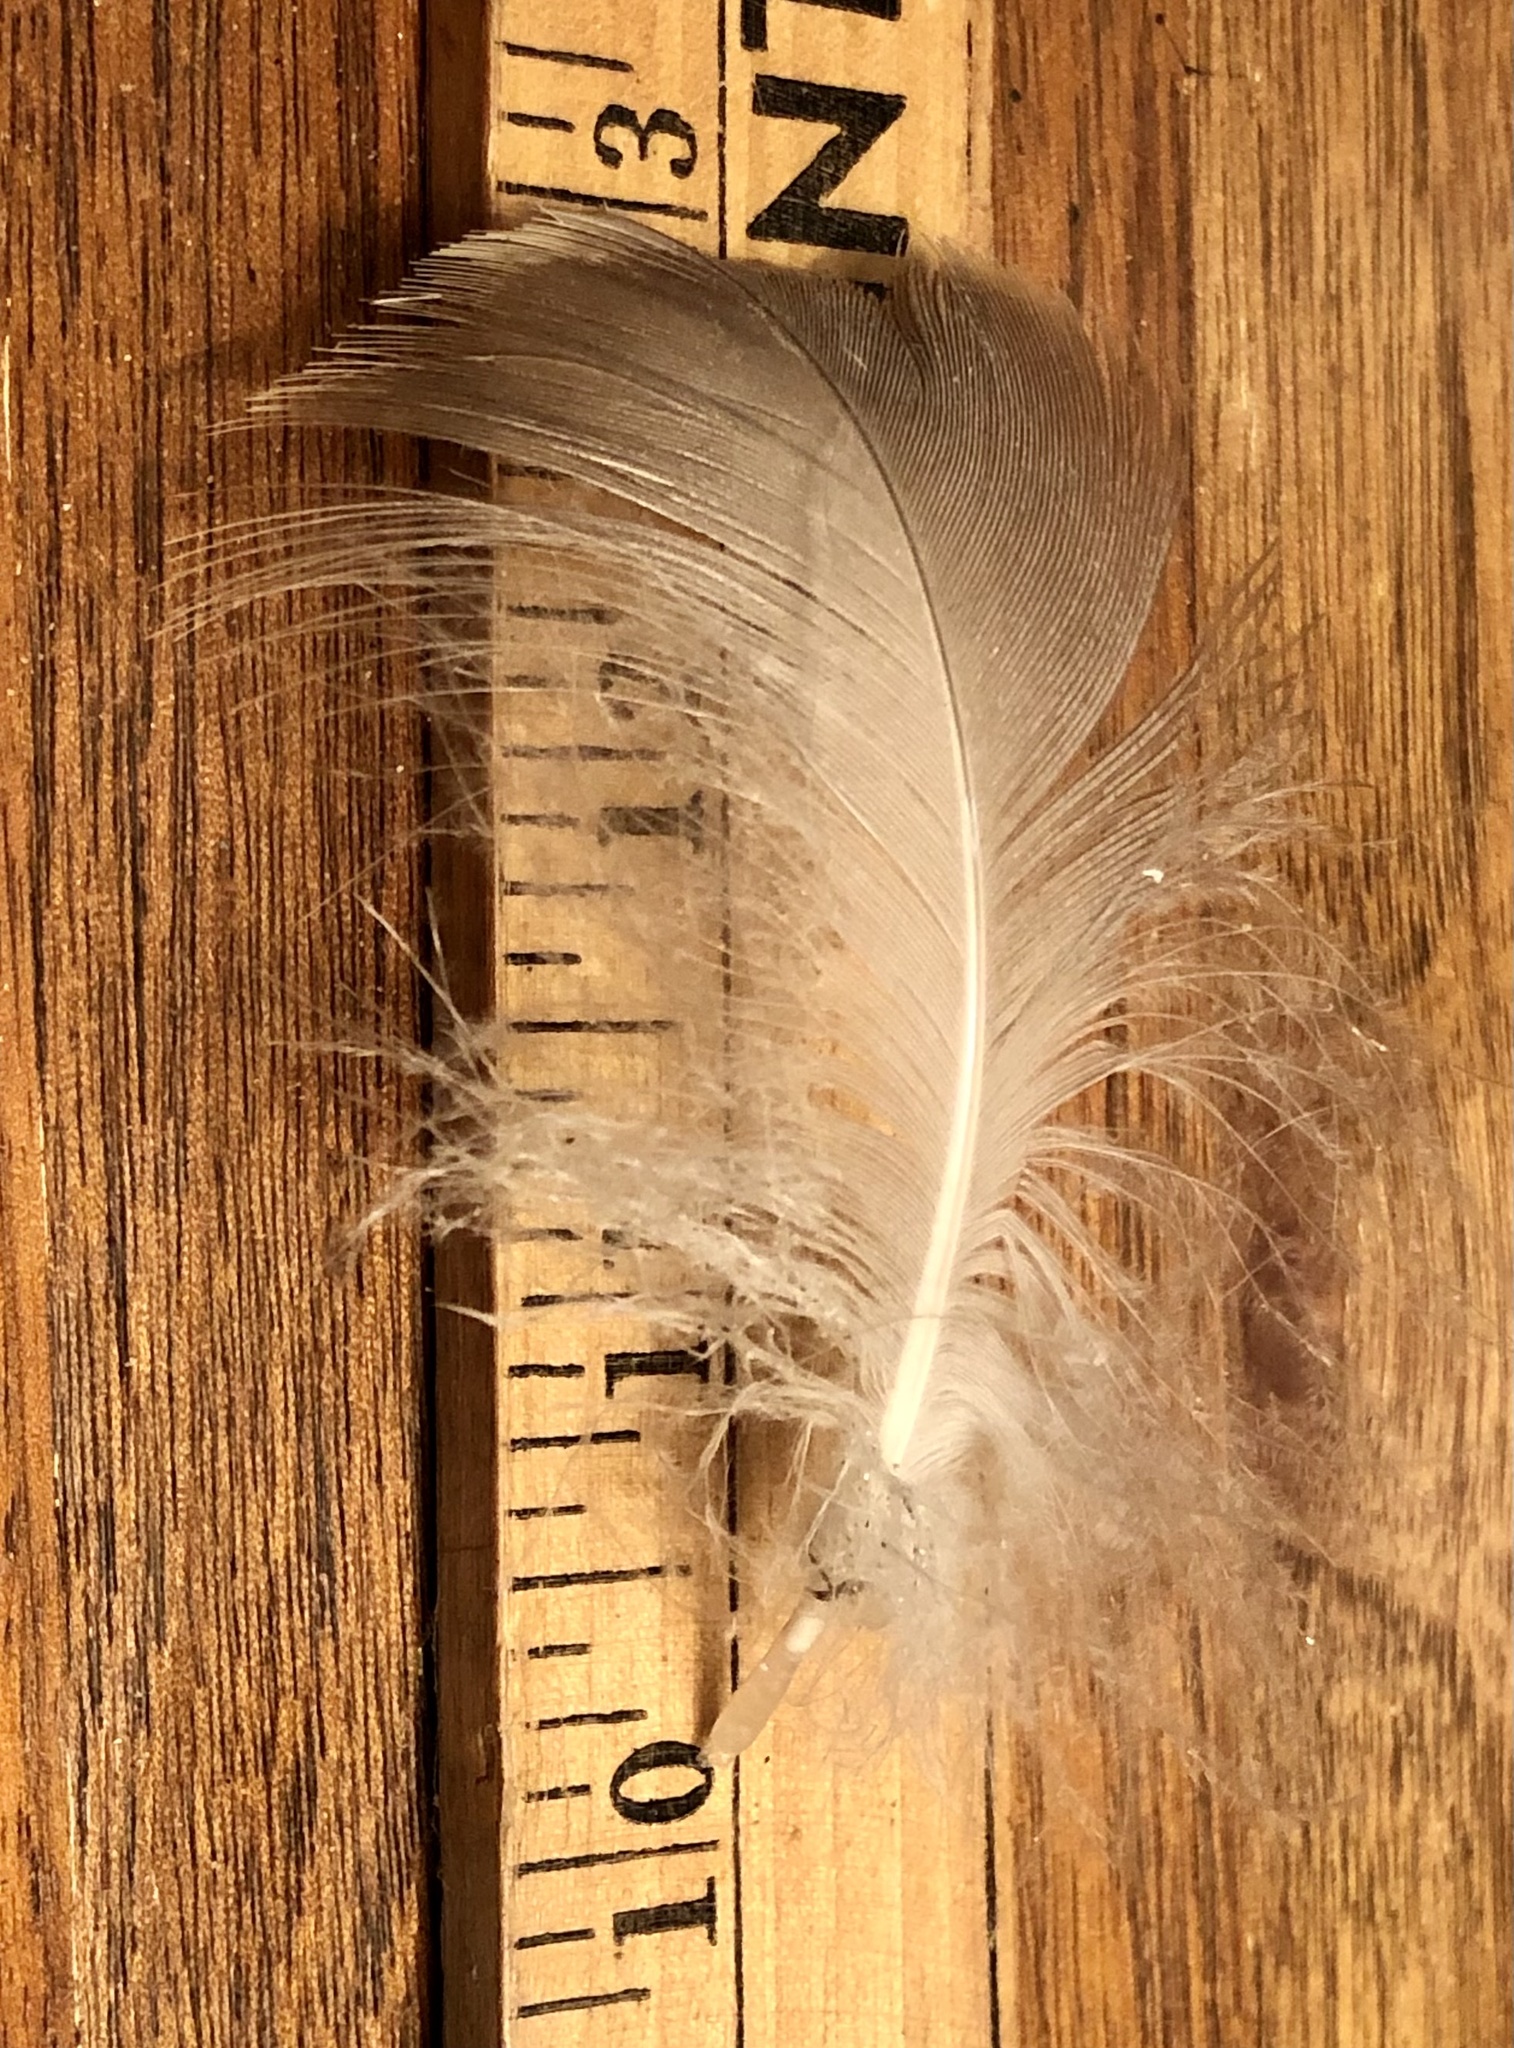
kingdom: Animalia
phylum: Chordata
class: Aves
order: Anseriformes
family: Anatidae
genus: Branta
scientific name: Branta canadensis
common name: Canada goose
